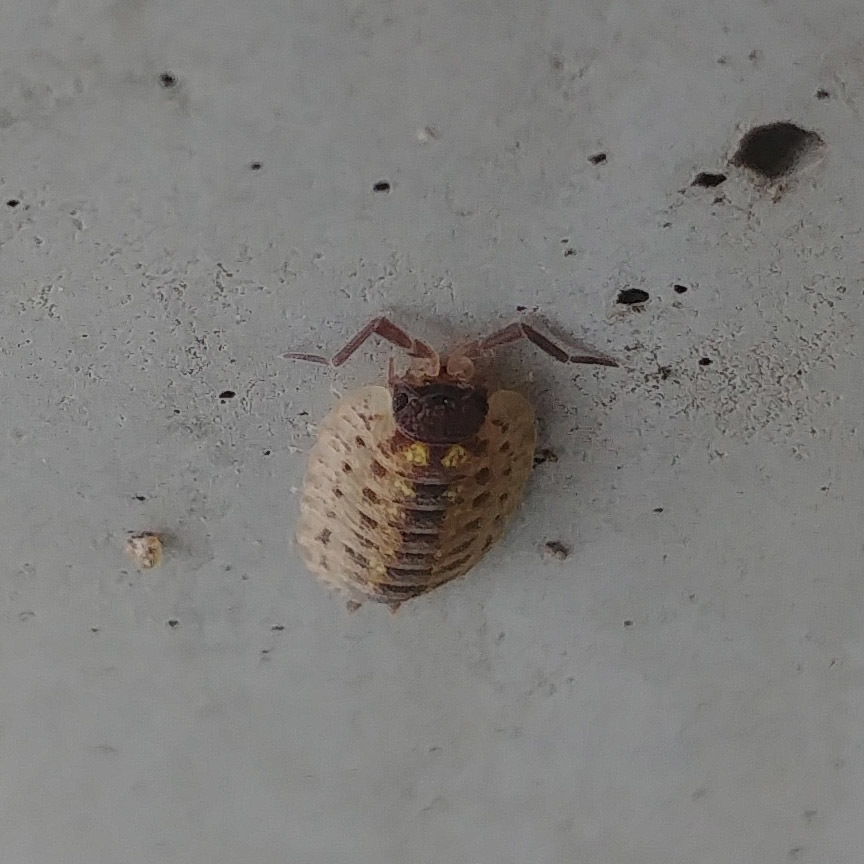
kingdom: Animalia
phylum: Arthropoda
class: Malacostraca
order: Isopoda
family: Porcellionidae
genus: Porcellio
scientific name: Porcellio spinicornis
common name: Painted woodlouse
